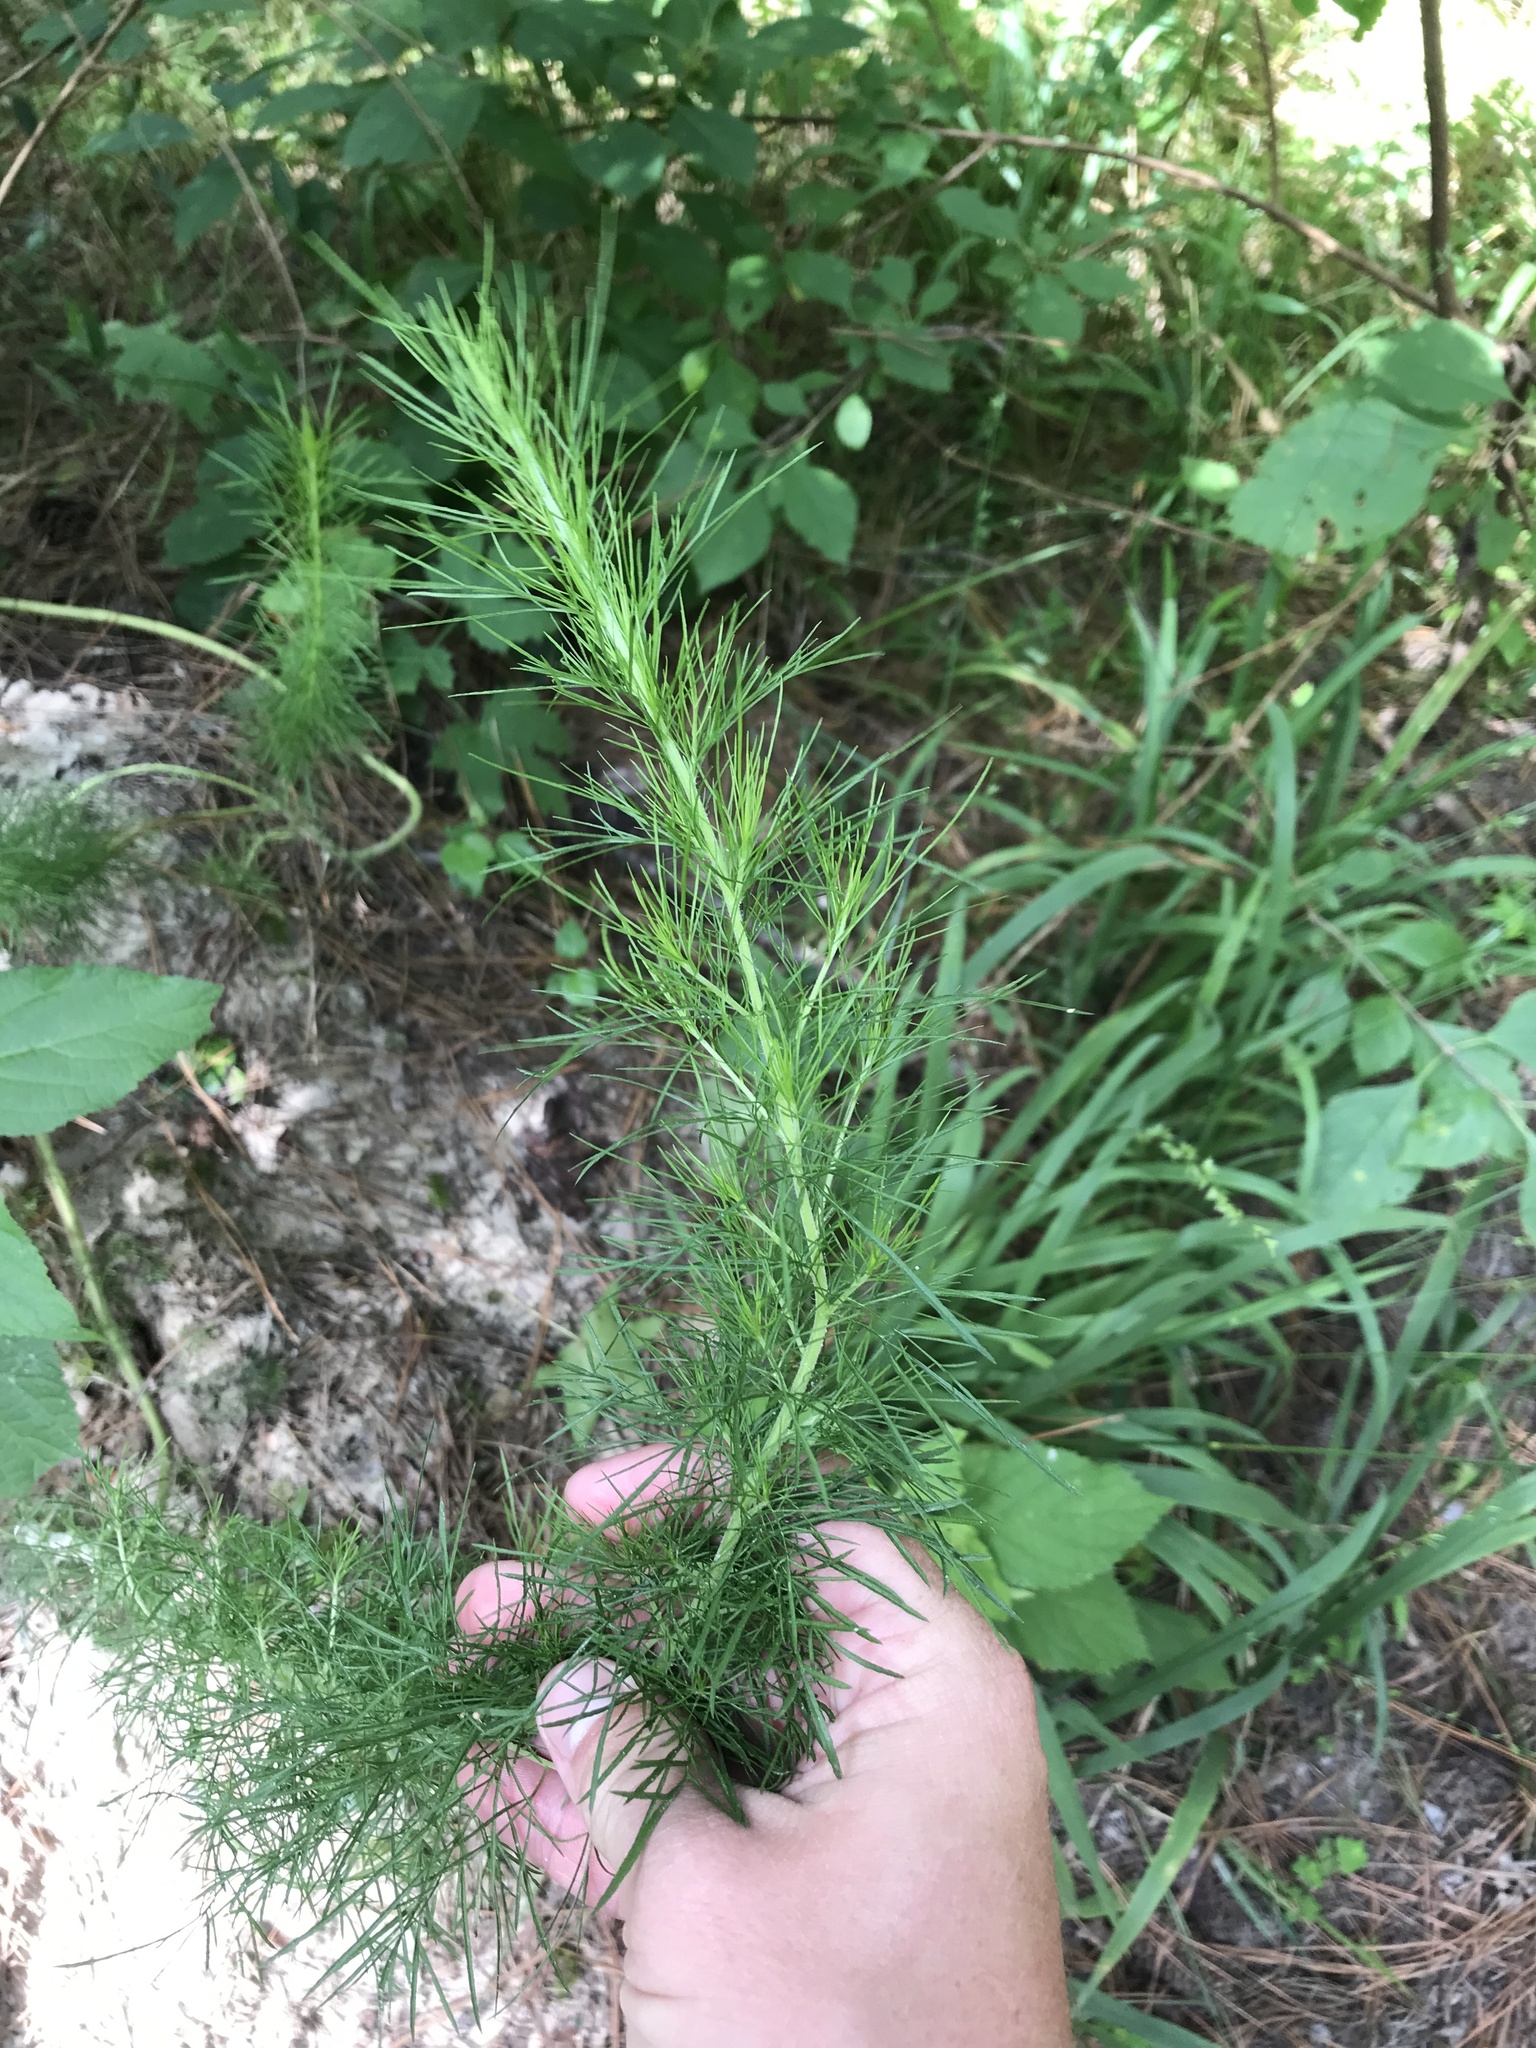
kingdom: Plantae
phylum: Tracheophyta
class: Magnoliopsida
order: Asterales
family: Asteraceae
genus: Eupatorium
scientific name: Eupatorium capillifolium
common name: Dog-fennel
